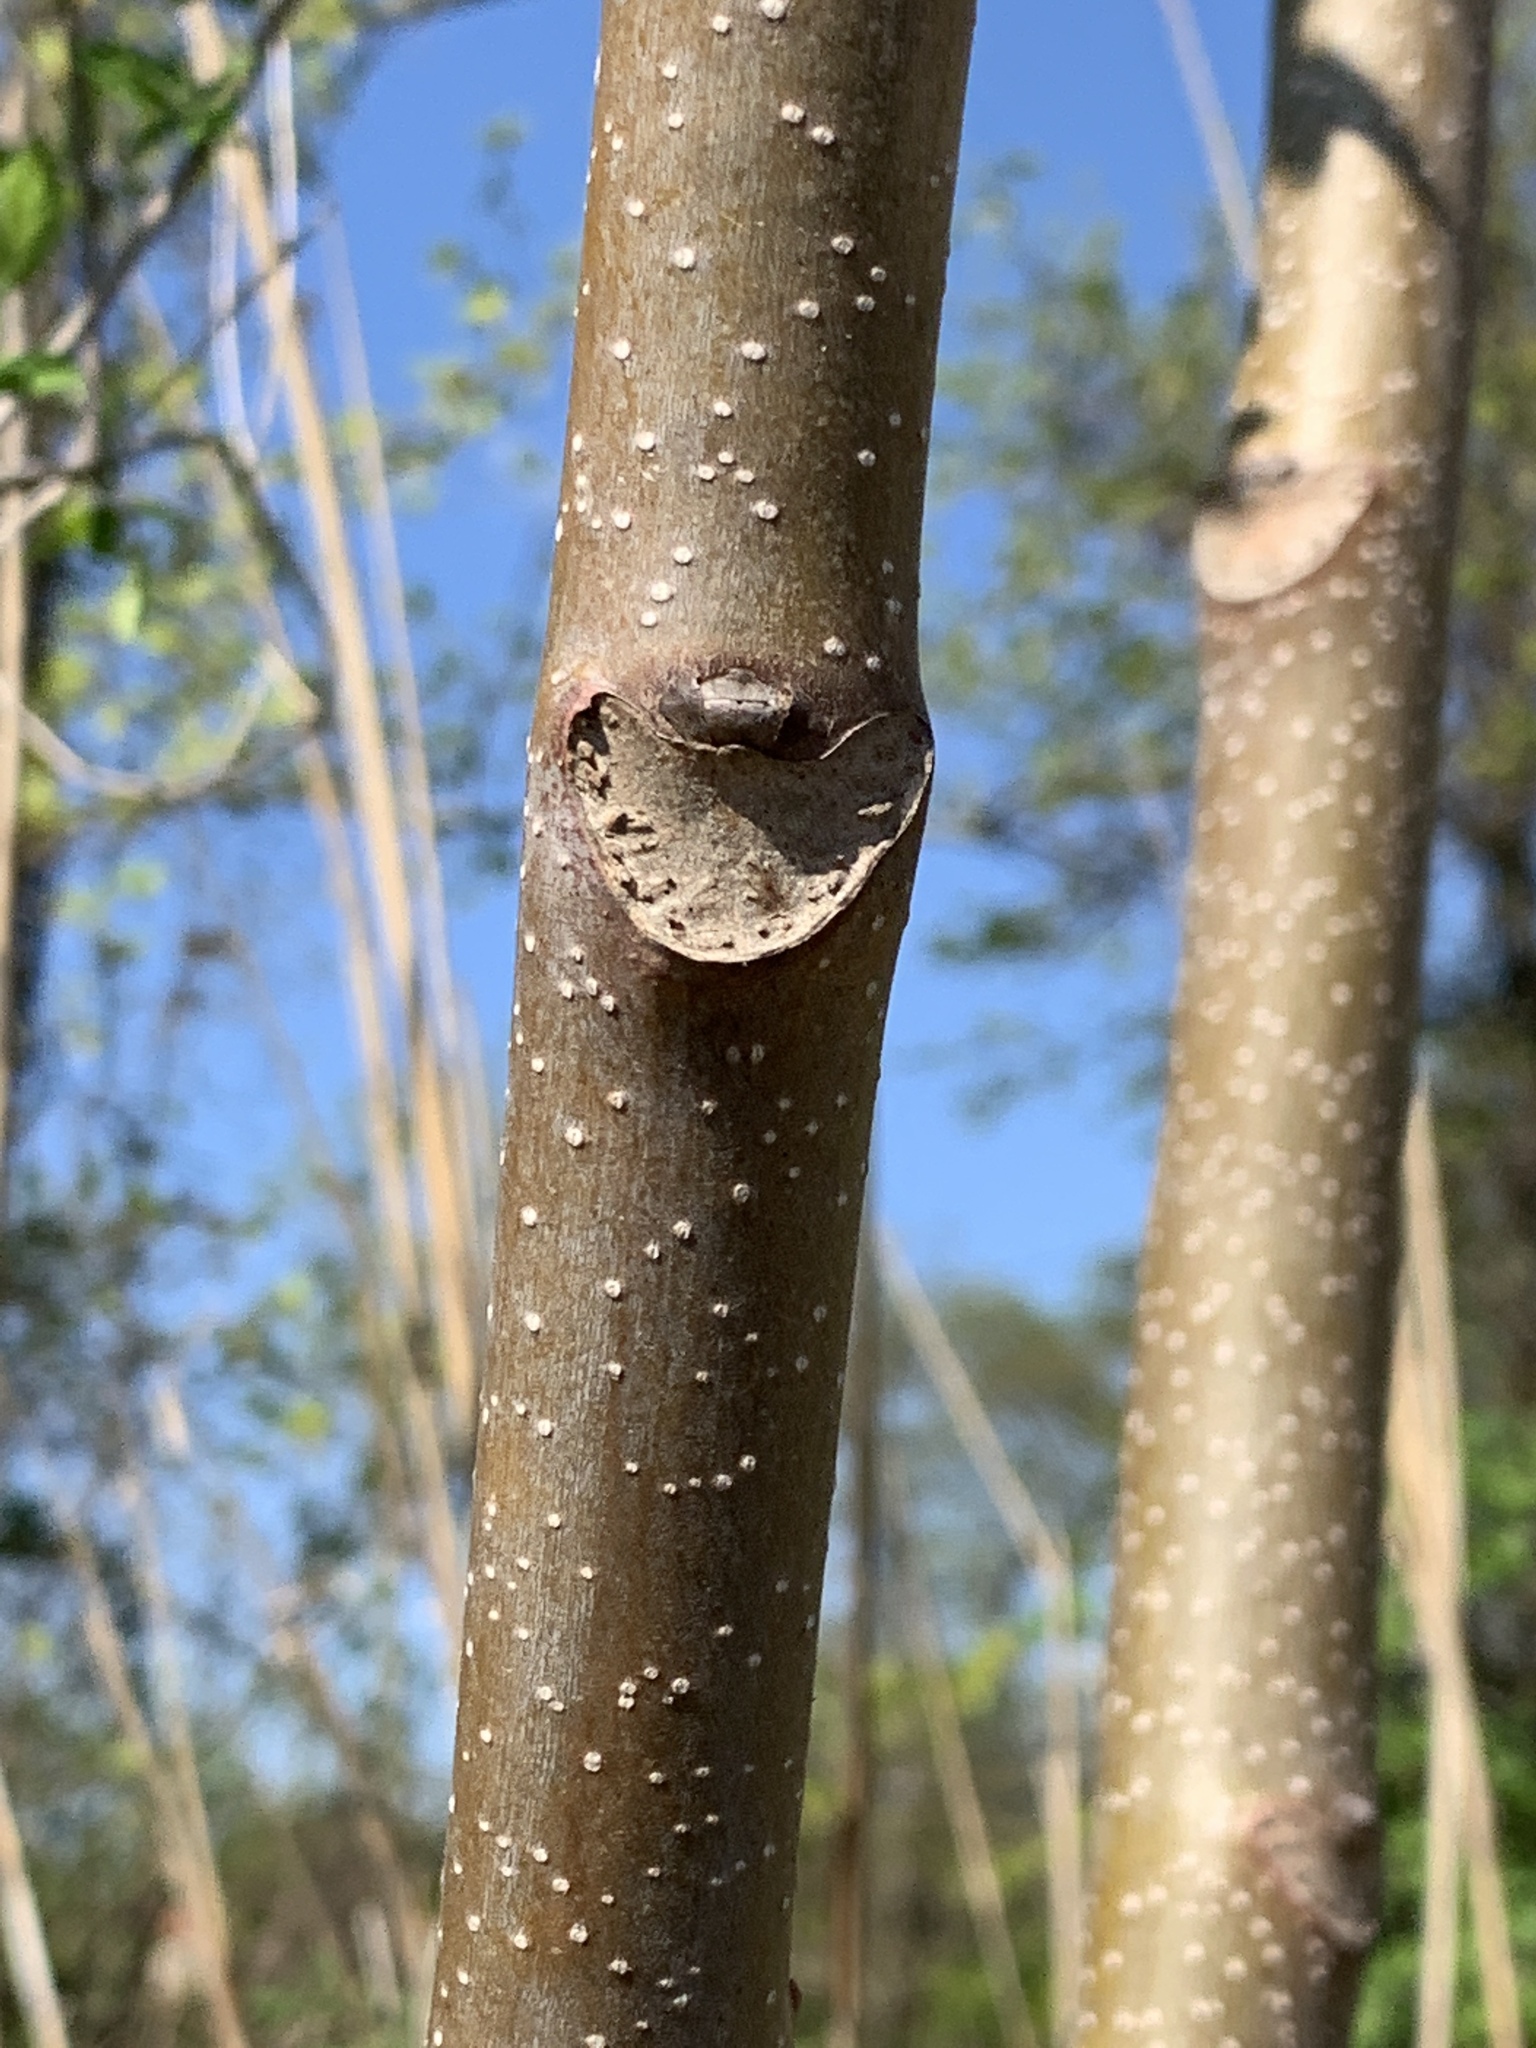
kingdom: Plantae
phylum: Tracheophyta
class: Magnoliopsida
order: Sapindales
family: Simaroubaceae
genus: Ailanthus
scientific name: Ailanthus altissima
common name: Tree-of-heaven
